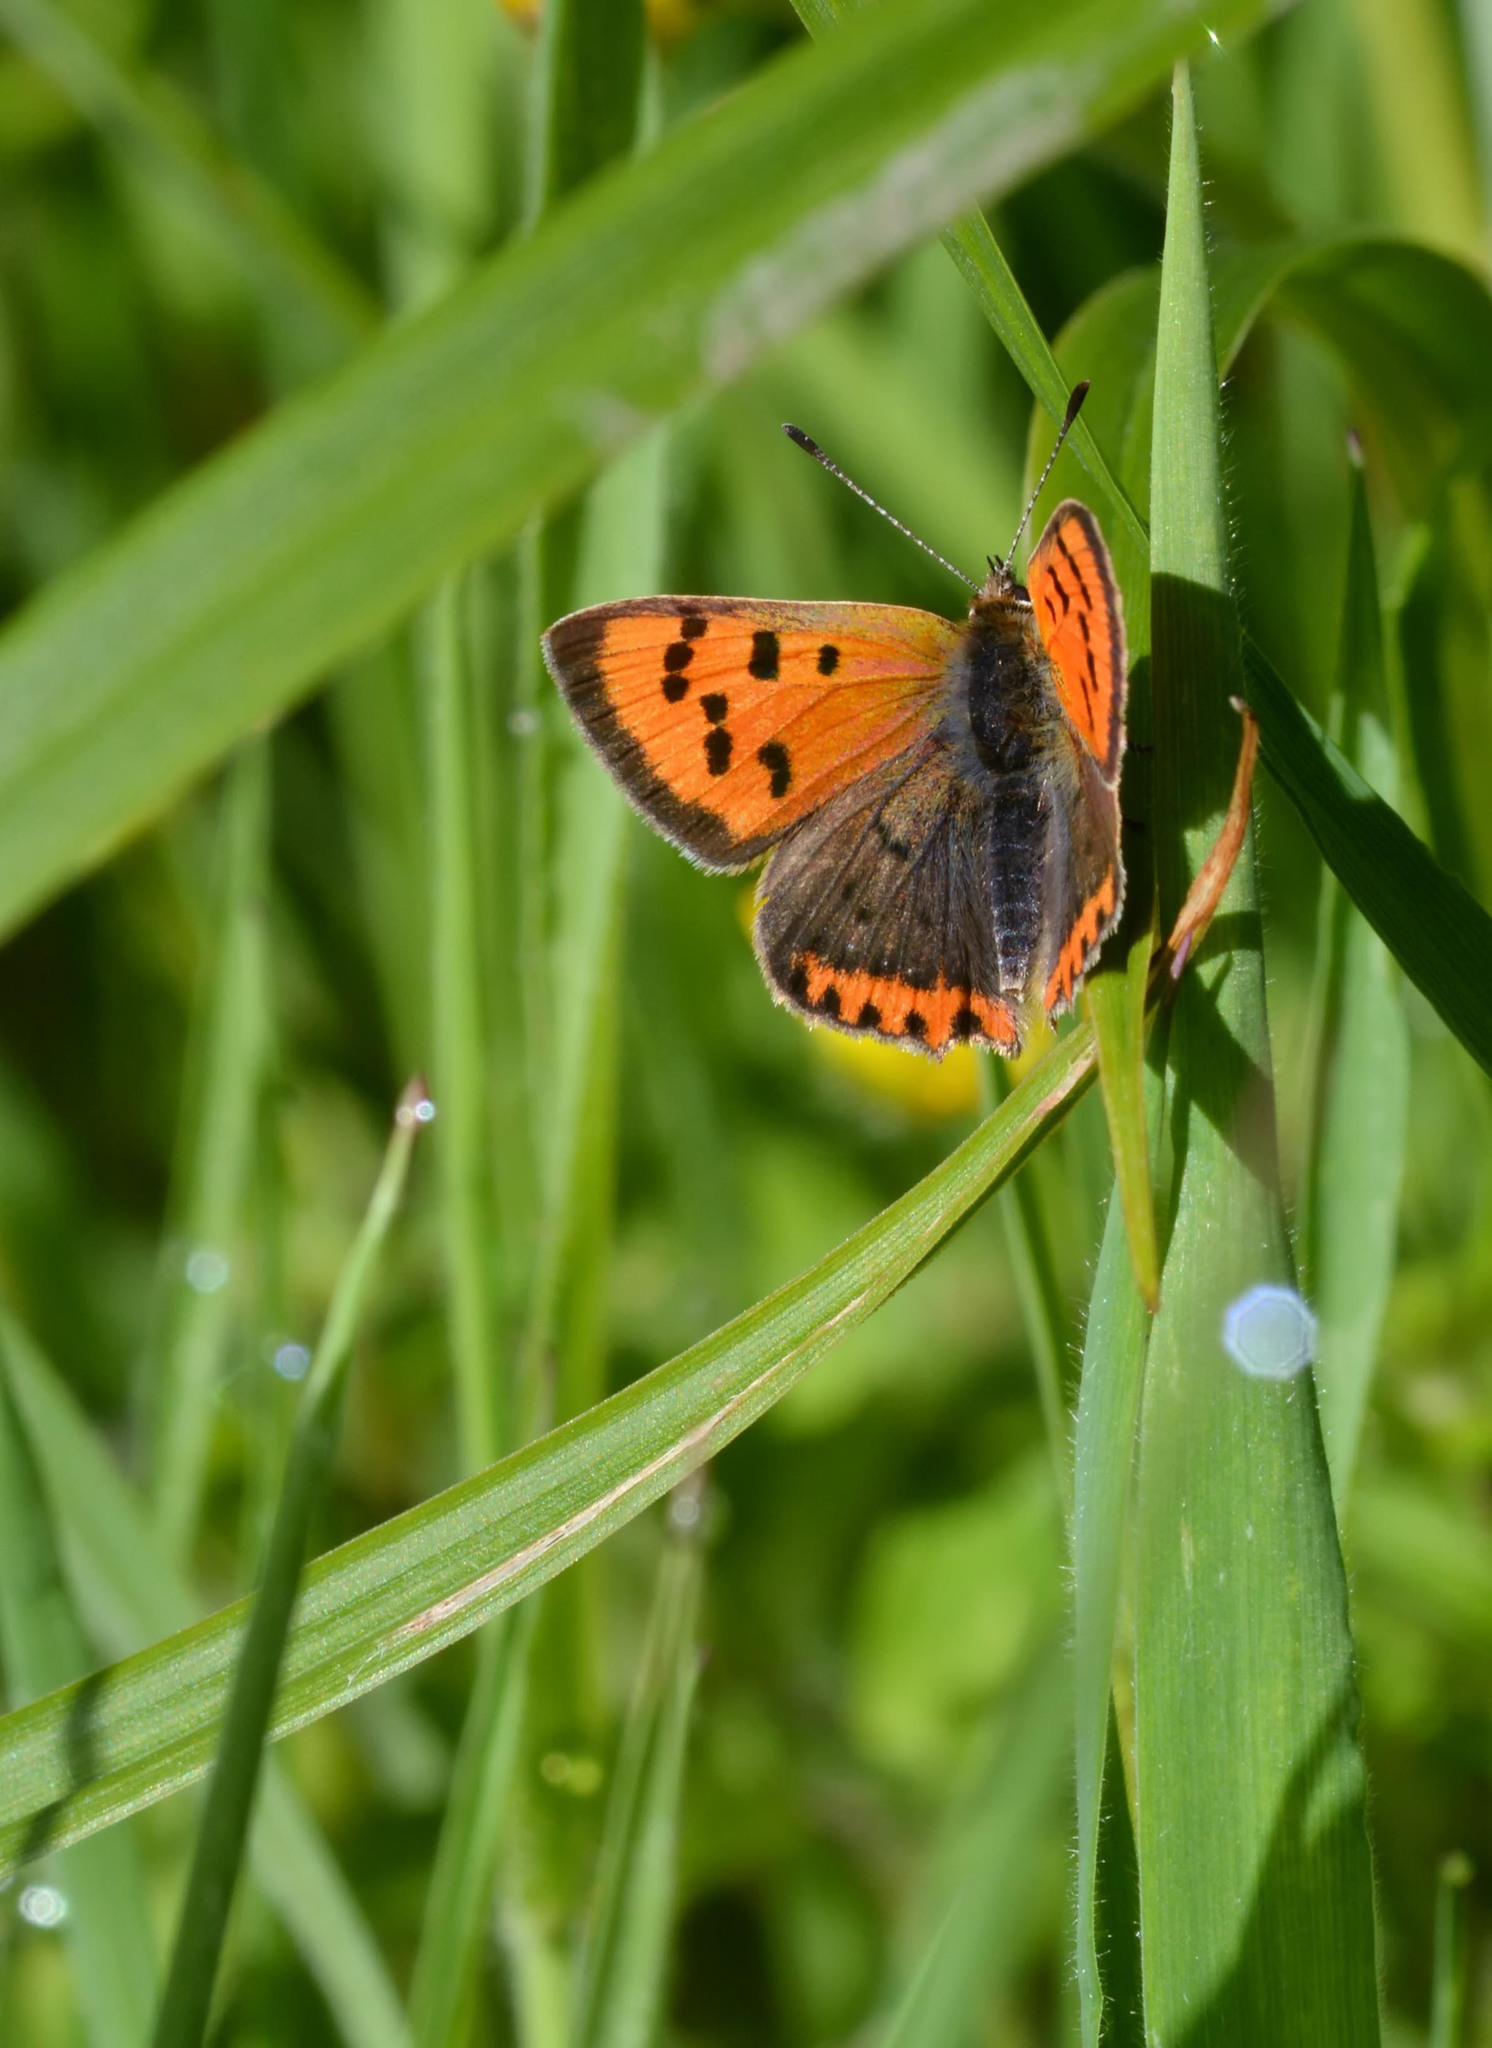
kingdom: Animalia
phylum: Arthropoda
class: Insecta
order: Lepidoptera
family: Lycaenidae
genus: Lycaena
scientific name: Lycaena phlaeas
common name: Small copper
